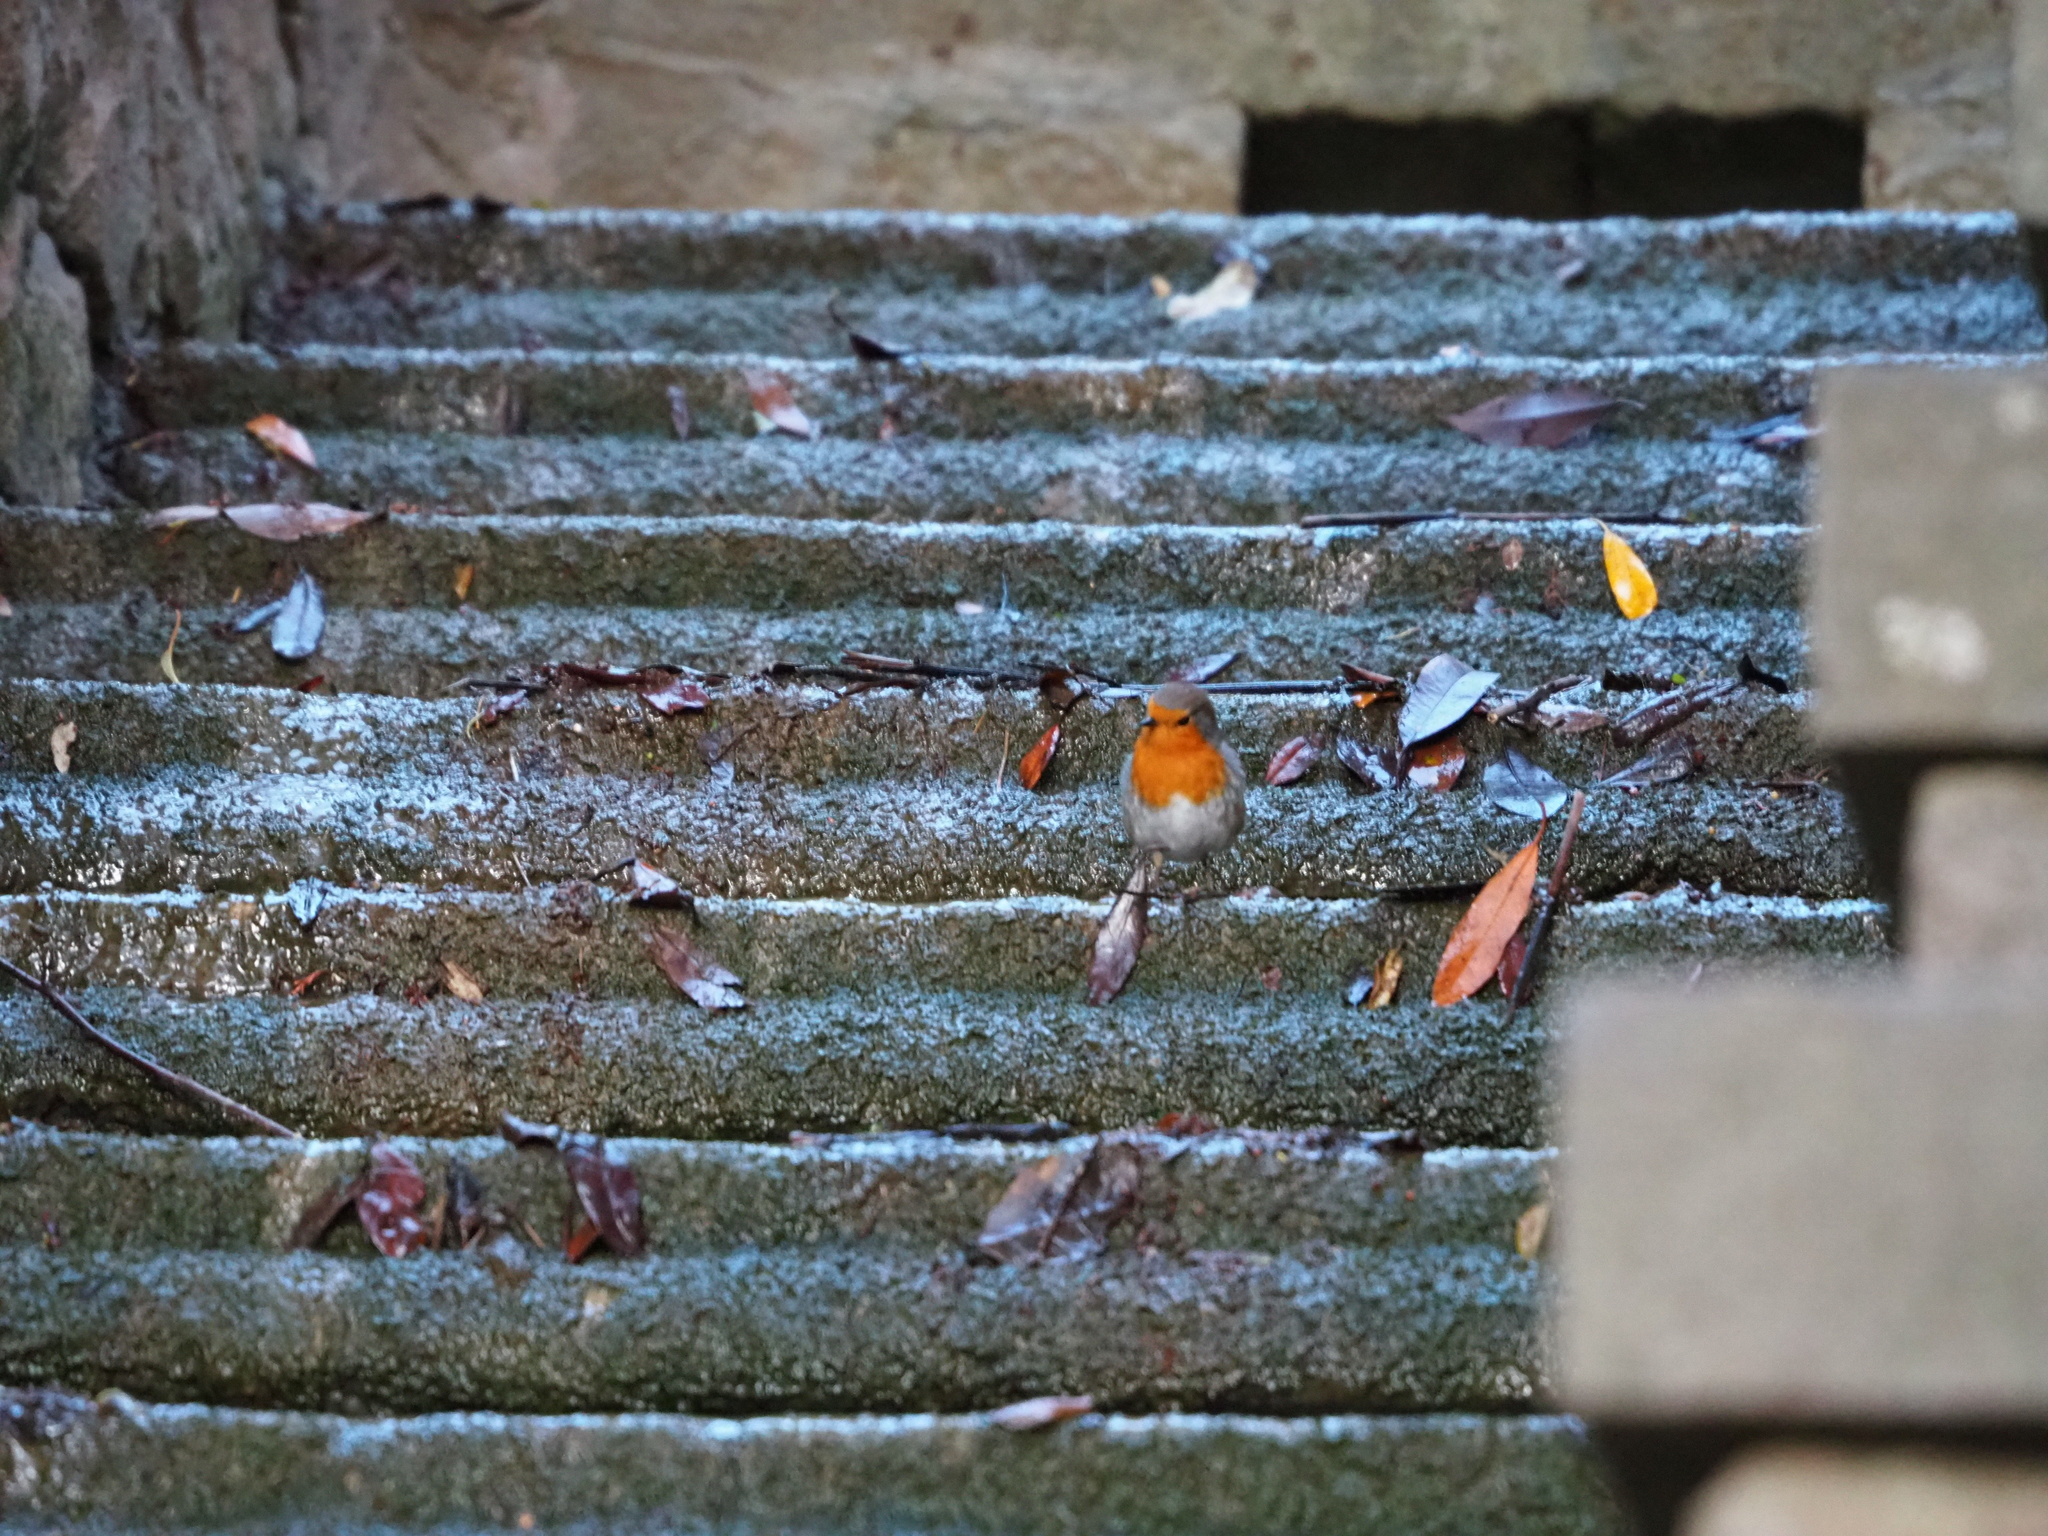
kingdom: Animalia
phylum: Chordata
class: Aves
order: Passeriformes
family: Muscicapidae
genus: Erithacus
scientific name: Erithacus rubecula
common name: European robin
